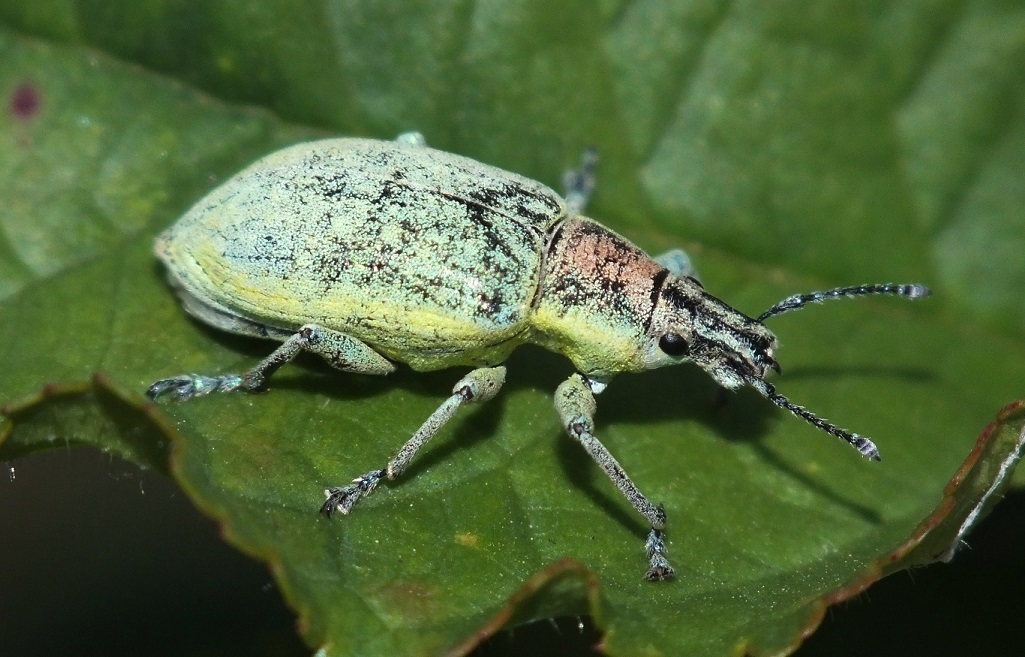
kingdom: Animalia
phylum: Arthropoda
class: Insecta
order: Coleoptera
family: Curculionidae
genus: Chlorophanus
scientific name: Chlorophanus micans
